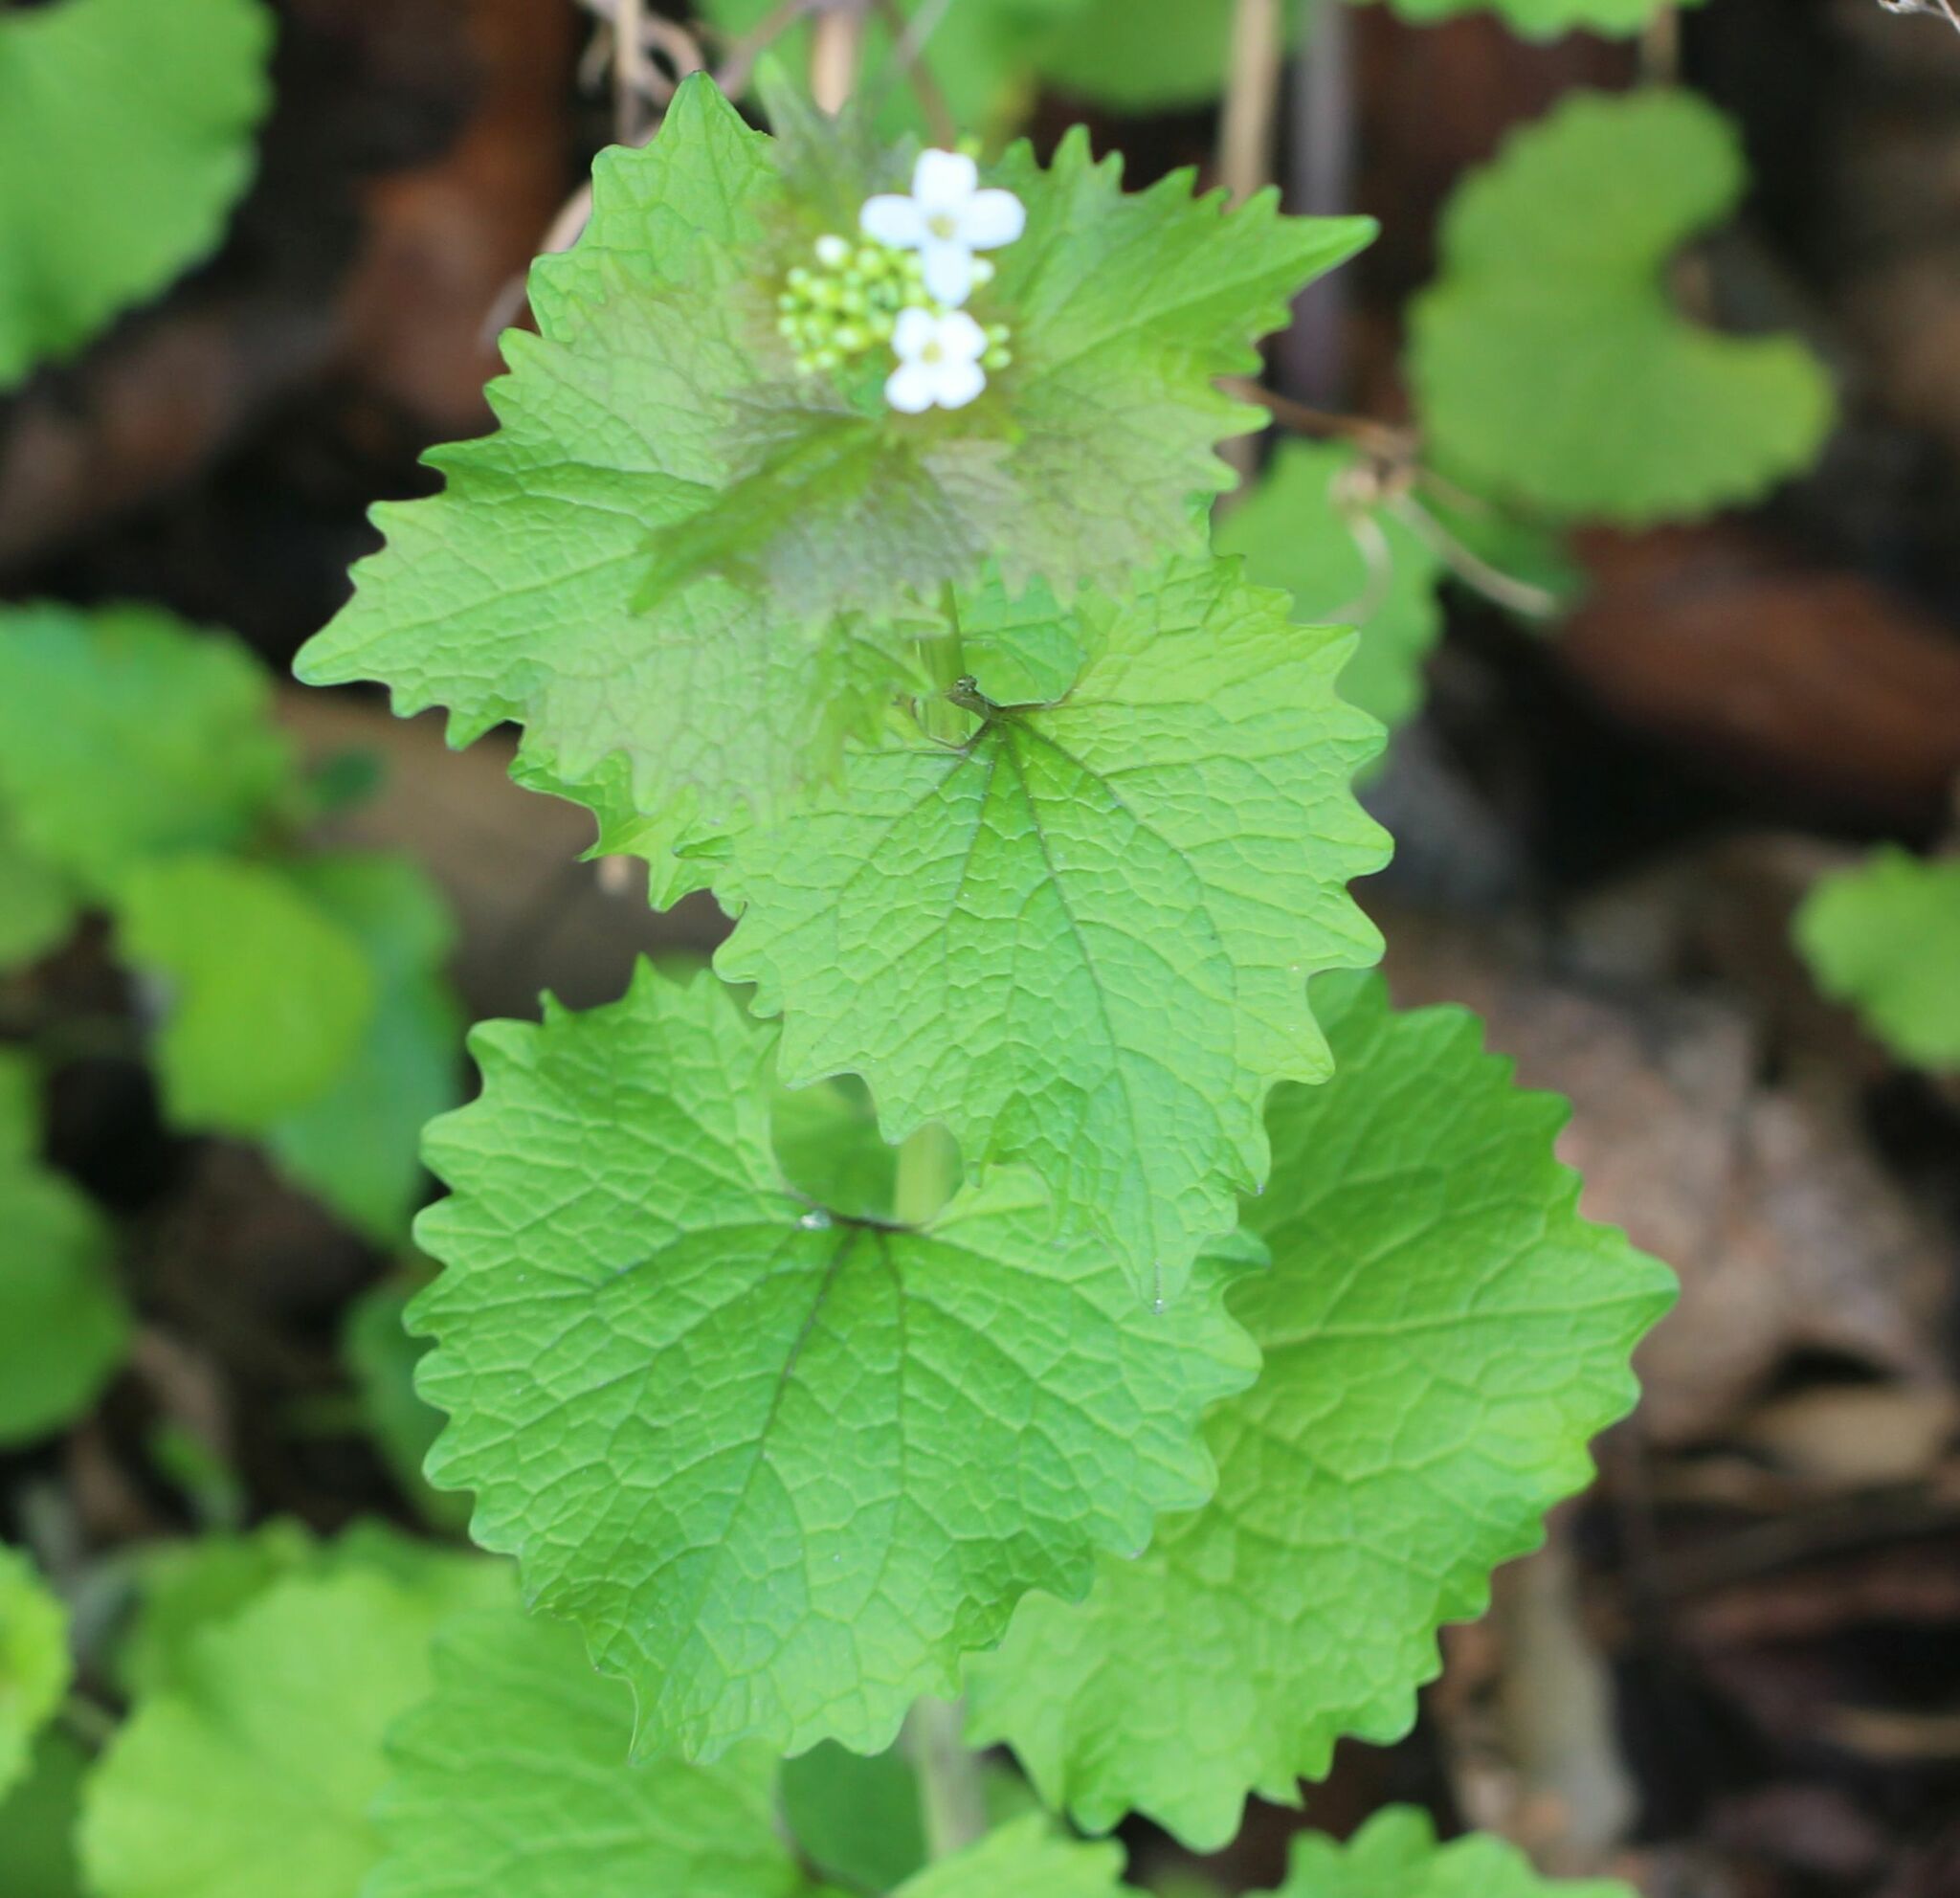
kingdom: Plantae
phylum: Tracheophyta
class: Magnoliopsida
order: Brassicales
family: Brassicaceae
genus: Alliaria
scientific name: Alliaria petiolata
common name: Garlic mustard
